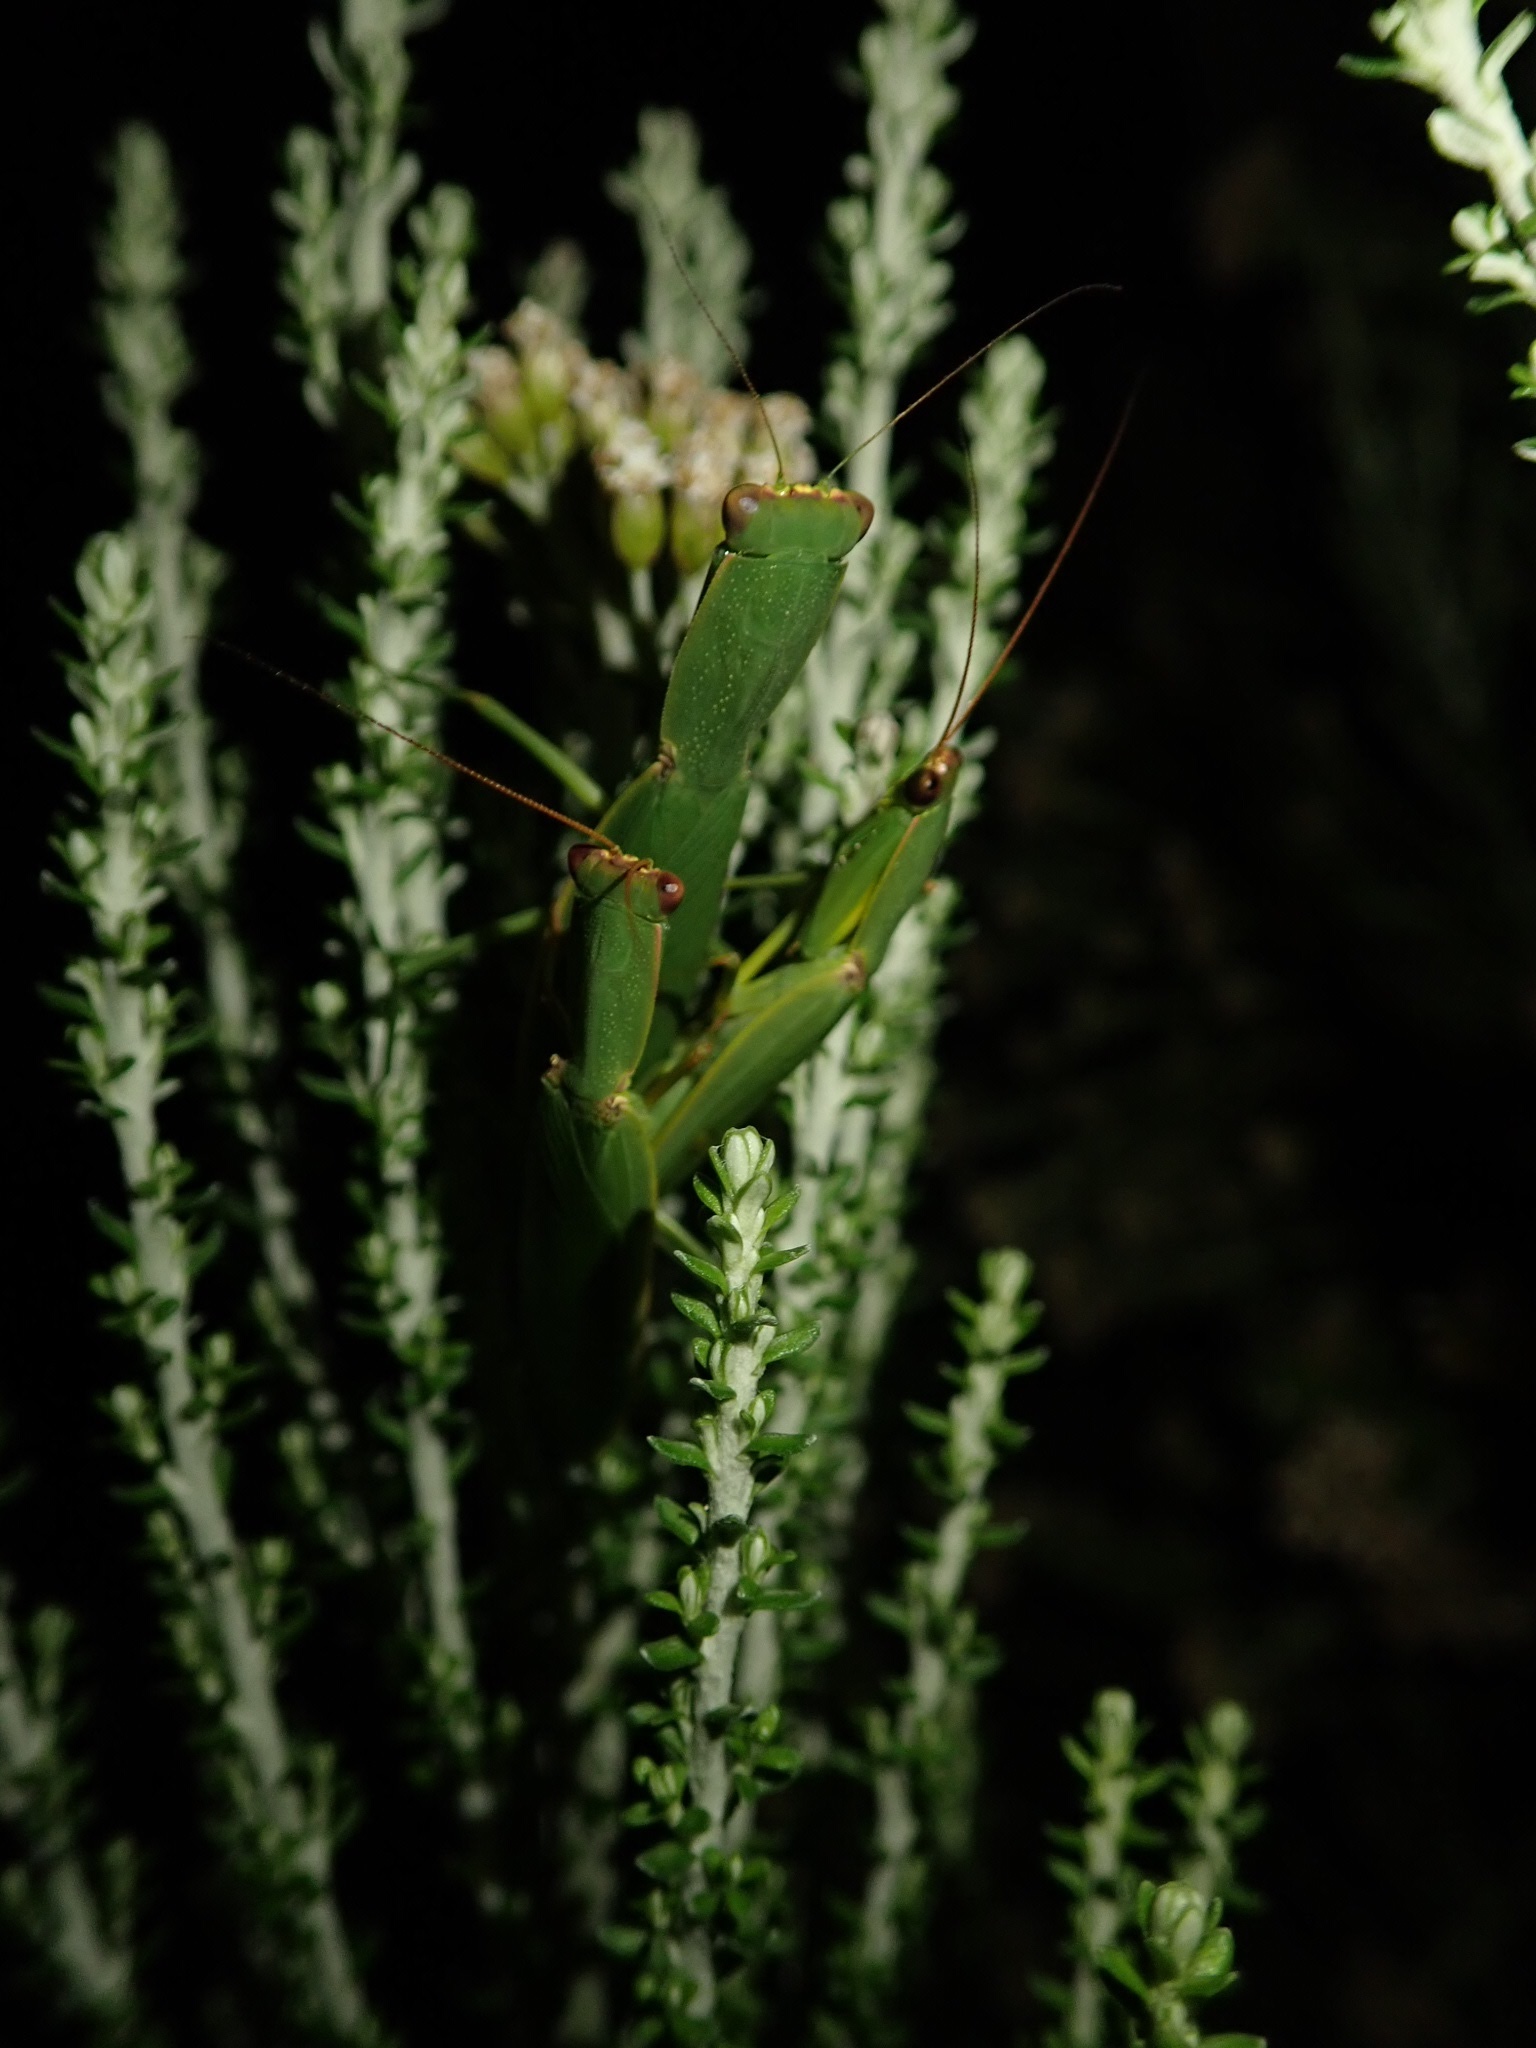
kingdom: Animalia
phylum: Arthropoda
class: Insecta
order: Mantodea
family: Mantidae
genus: Orthodera
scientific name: Orthodera novaezealandiae
